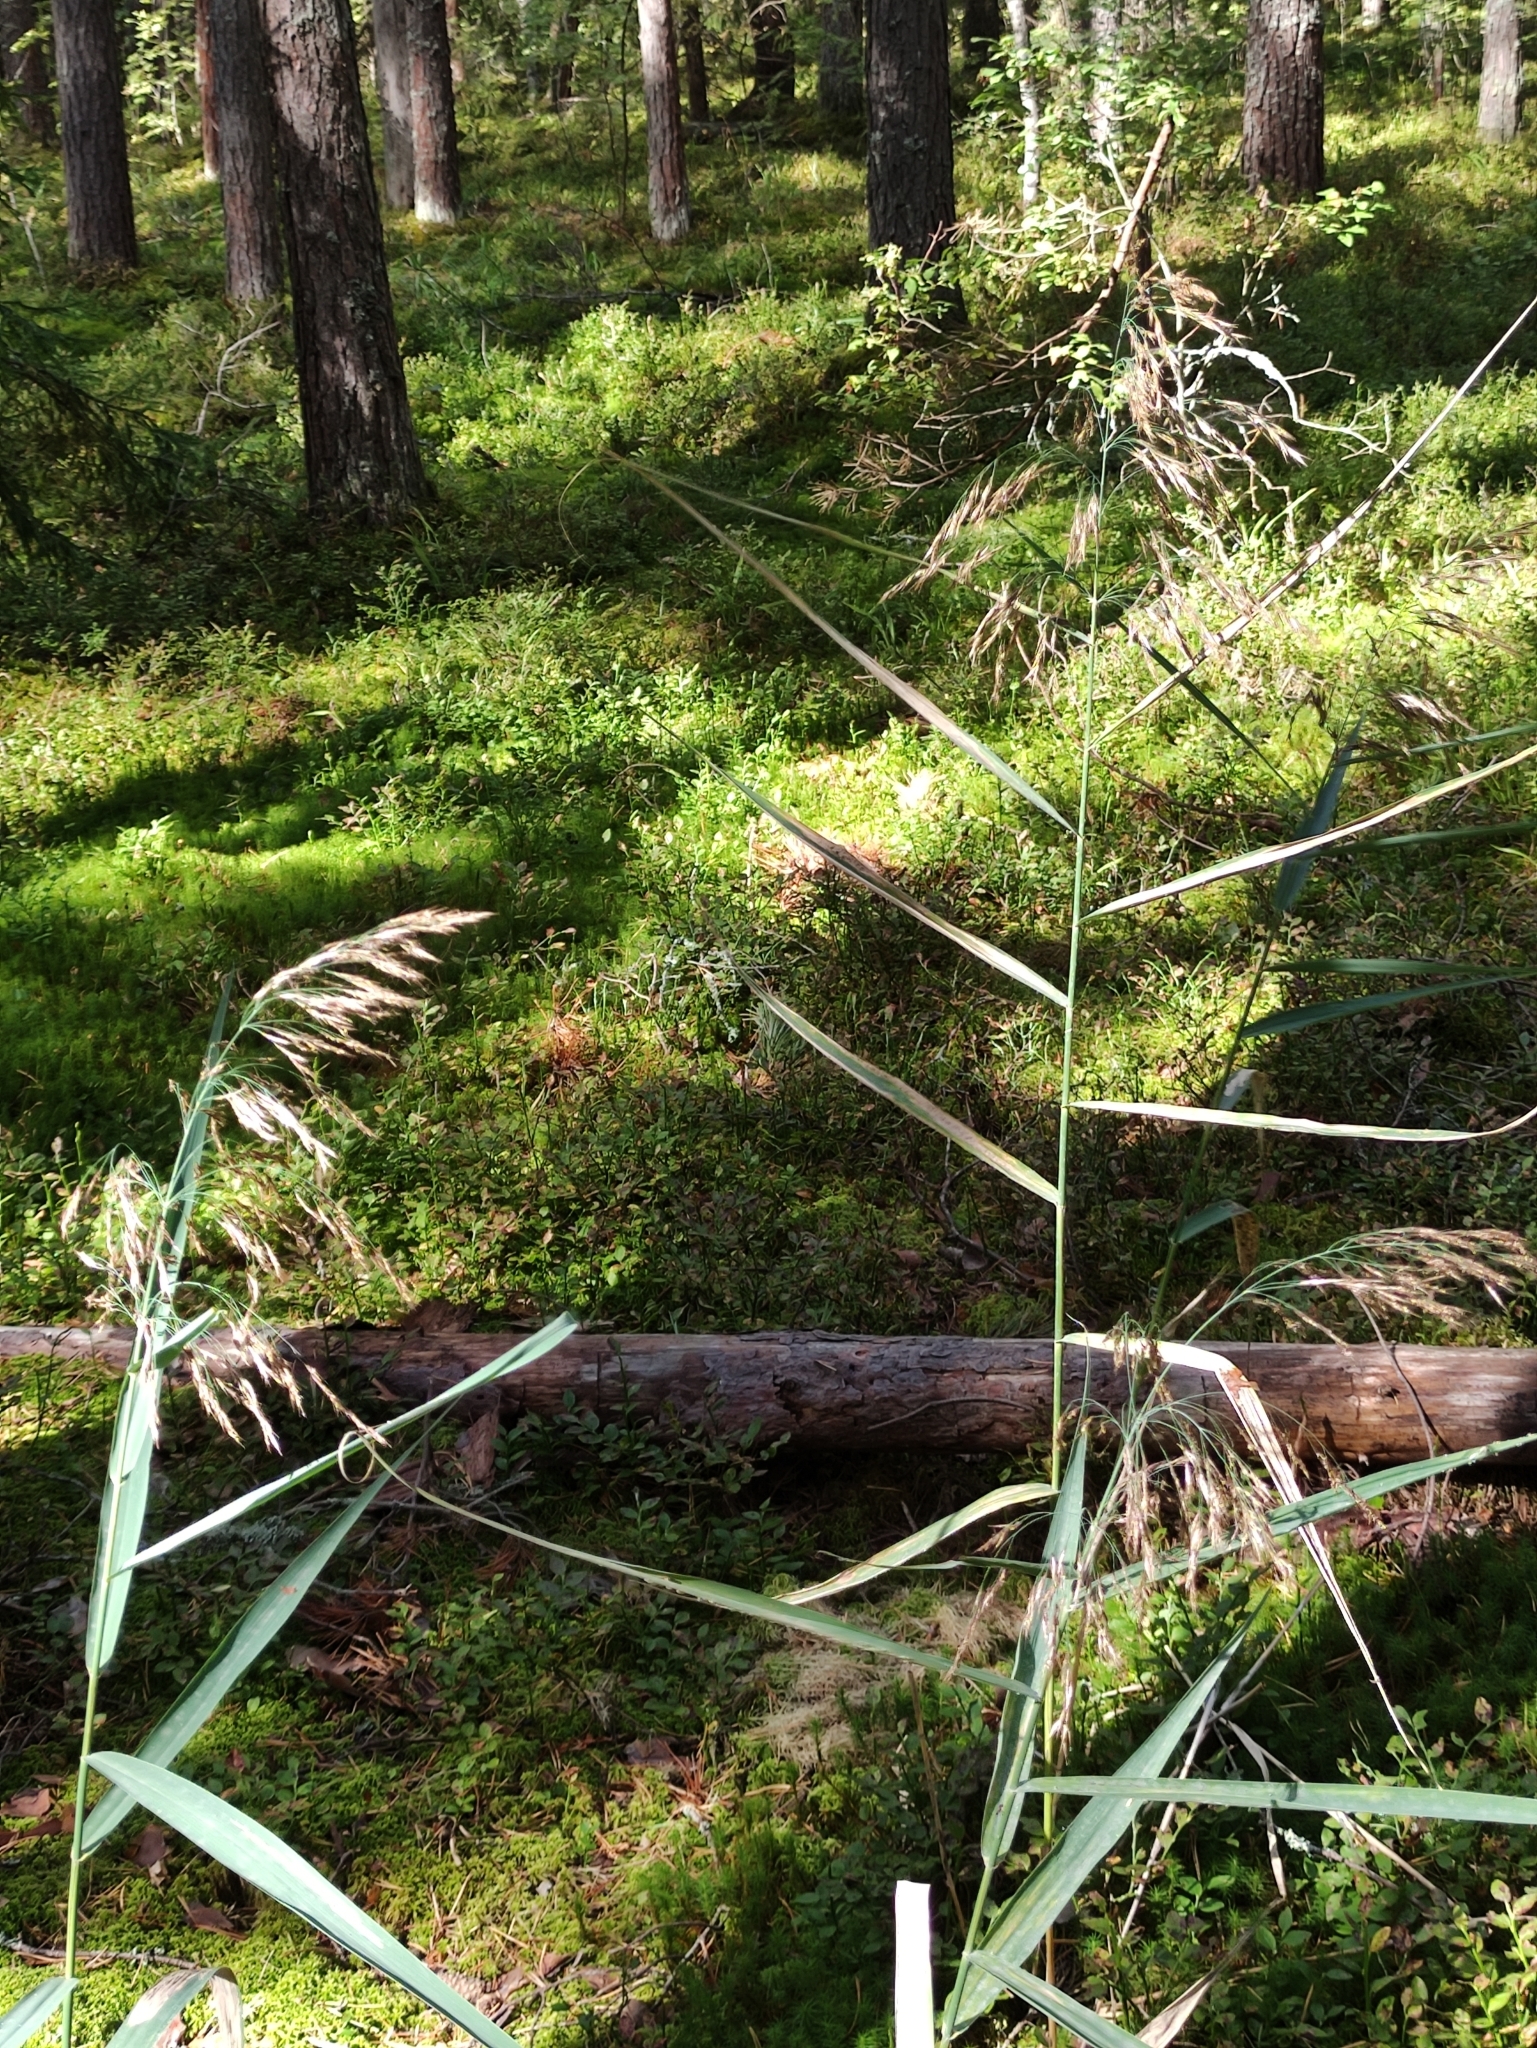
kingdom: Plantae
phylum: Tracheophyta
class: Liliopsida
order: Poales
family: Poaceae
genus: Phragmites
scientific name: Phragmites australis
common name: Common reed
